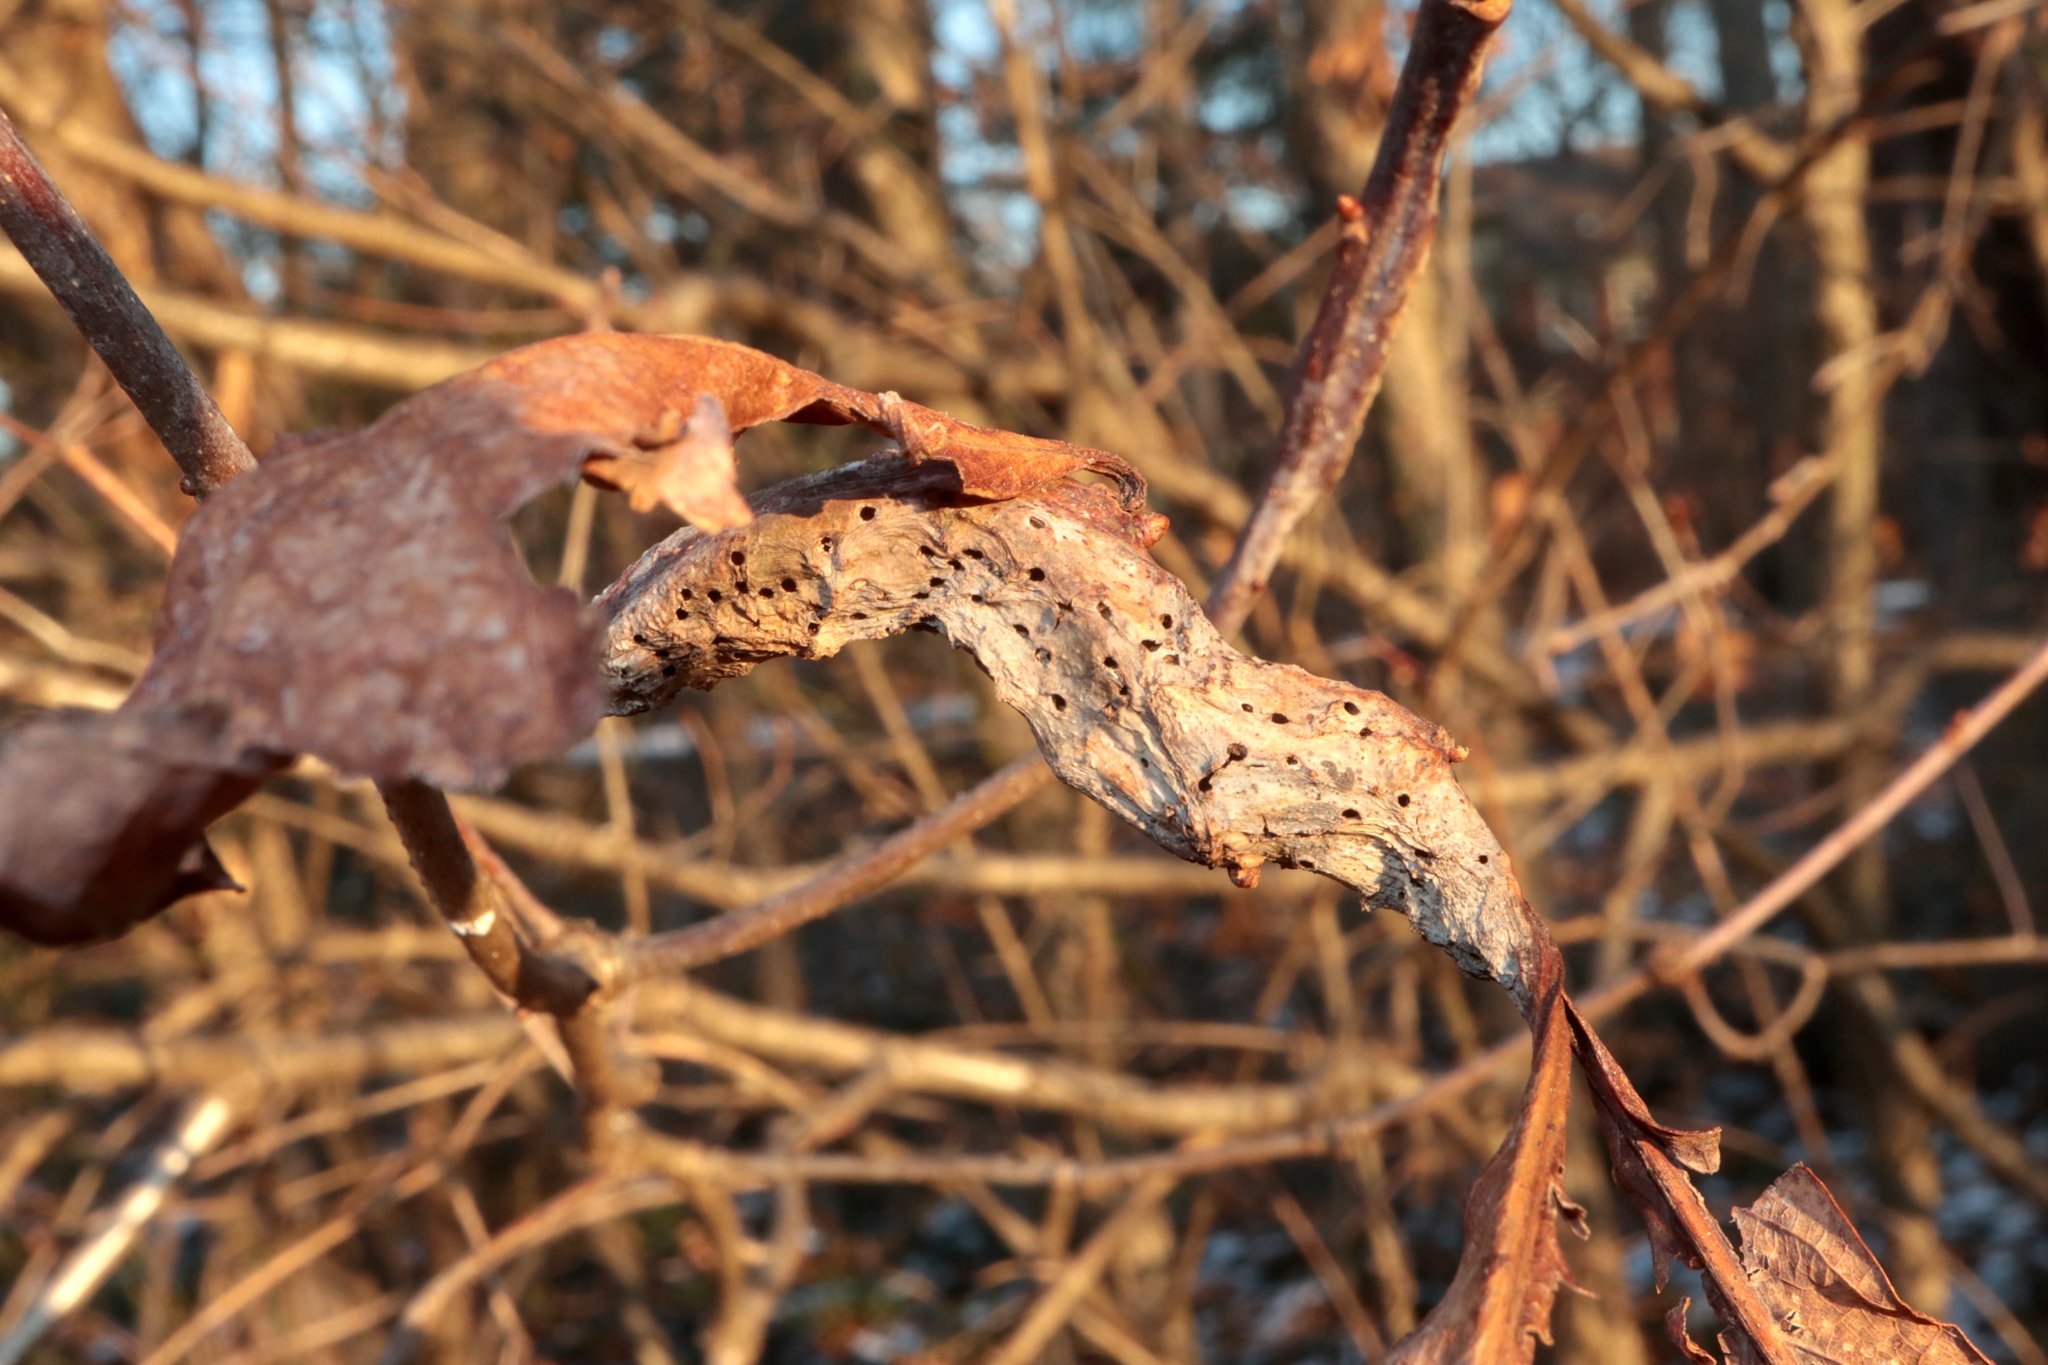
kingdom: Animalia
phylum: Arthropoda
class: Insecta
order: Hymenoptera
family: Cynipidae
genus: Neuroterus
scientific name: Neuroterus quercusbaccarum
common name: Common spangle gall
